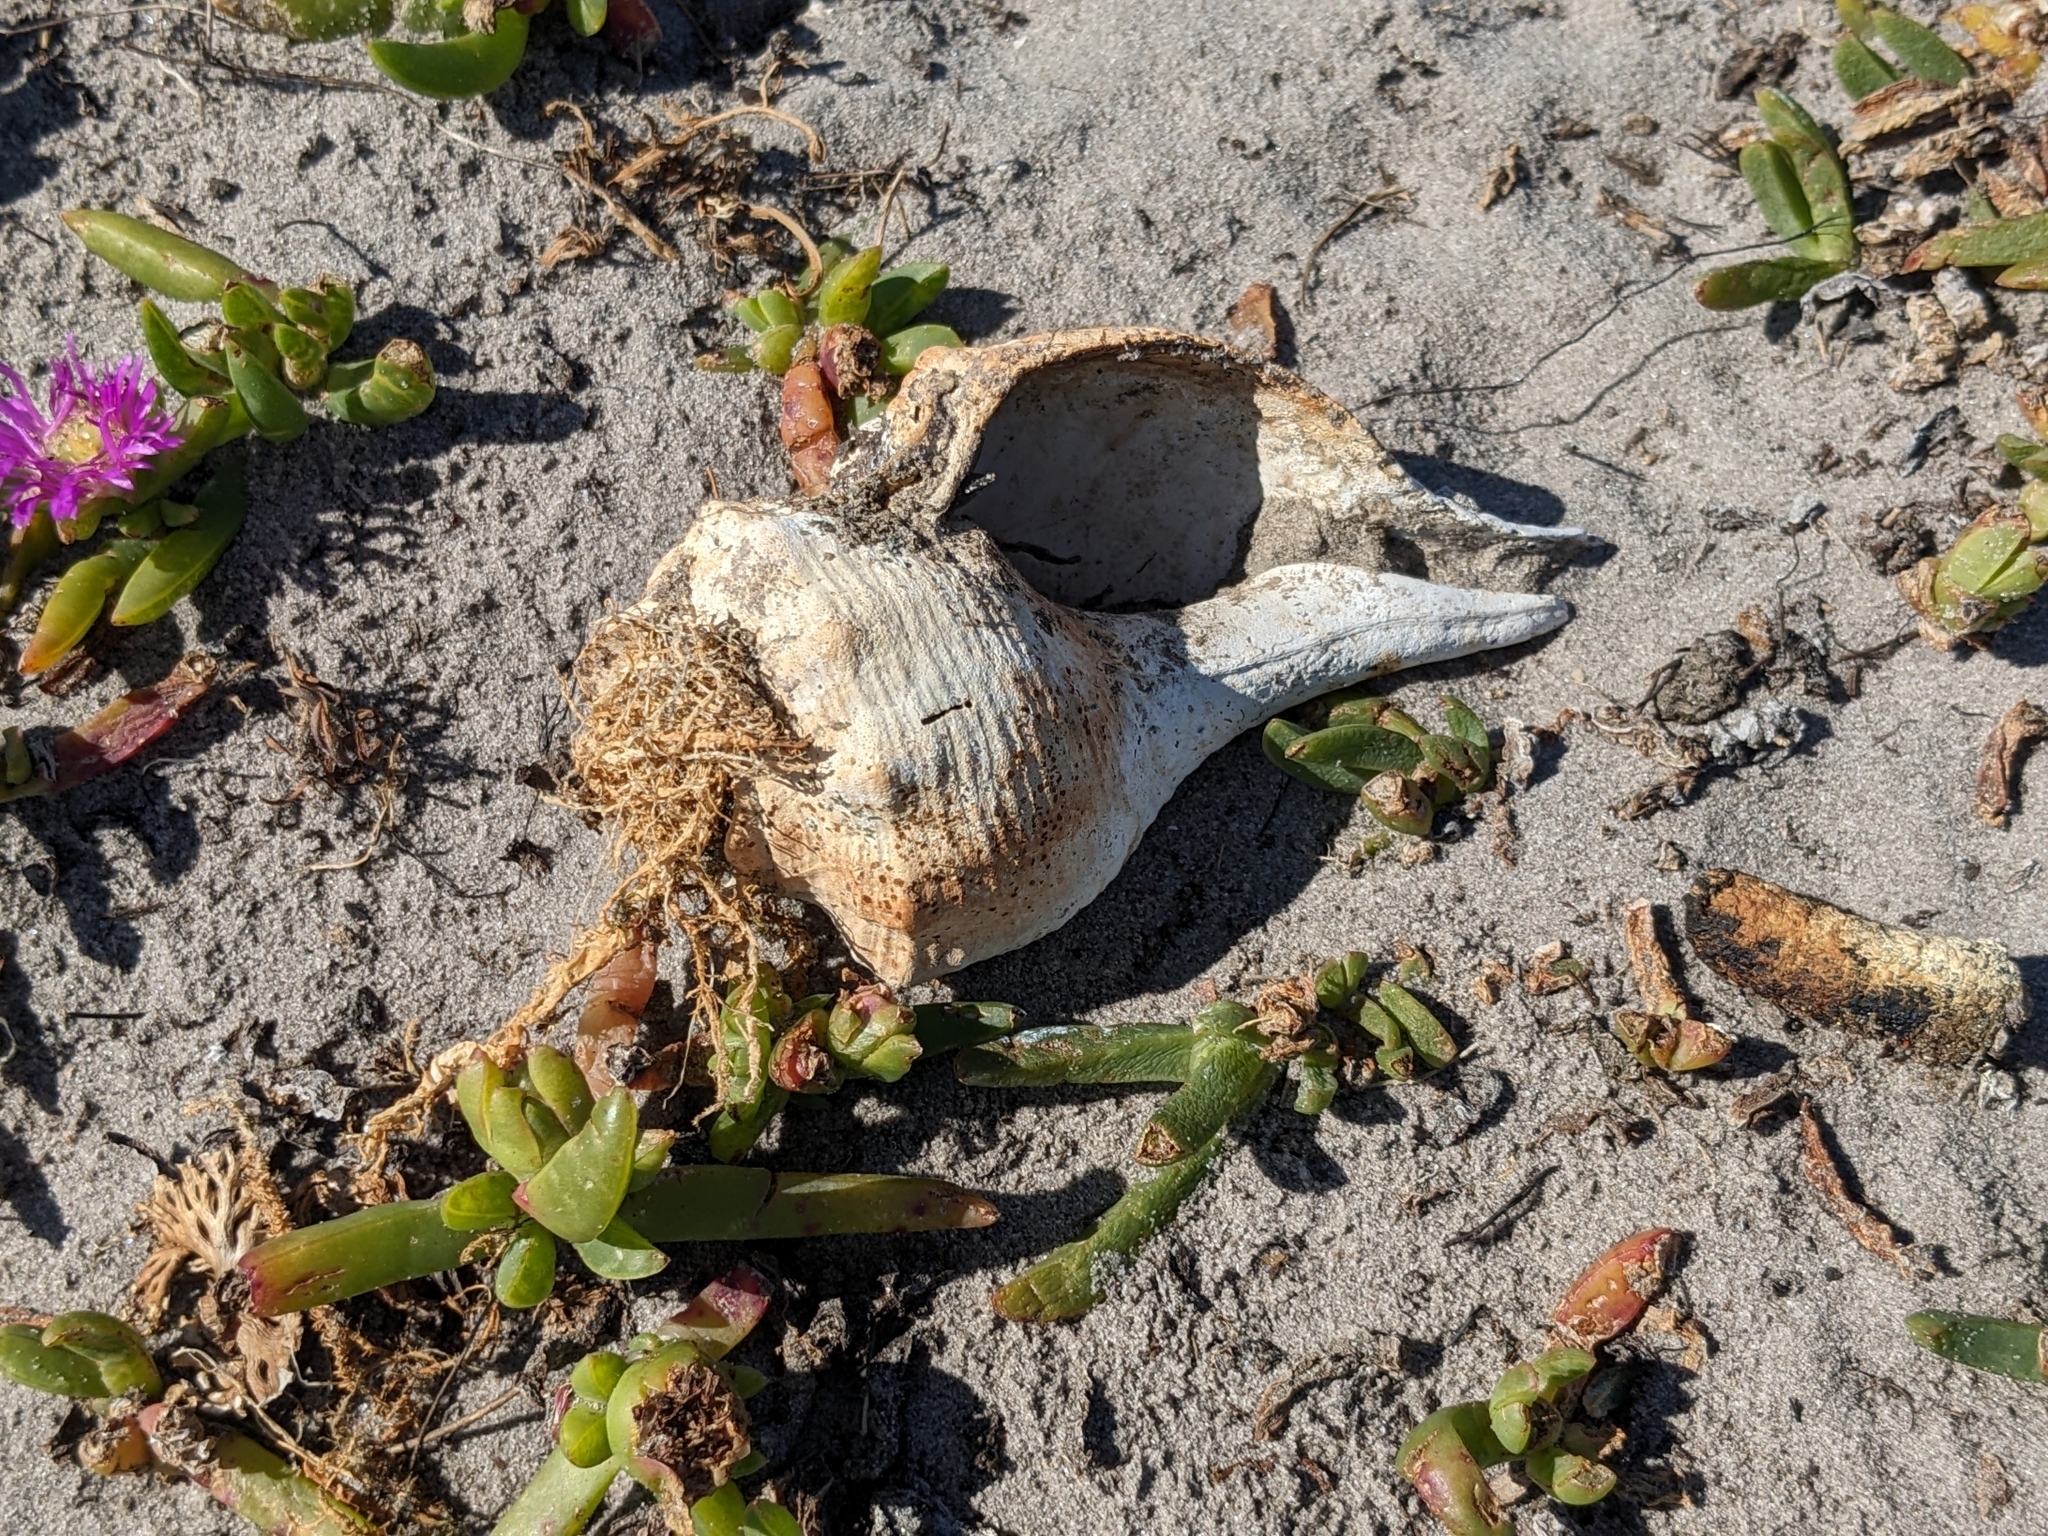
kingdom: Animalia
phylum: Mollusca
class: Gastropoda
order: Neogastropoda
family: Fasciolariidae
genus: Australaria
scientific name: Australaria australasia
